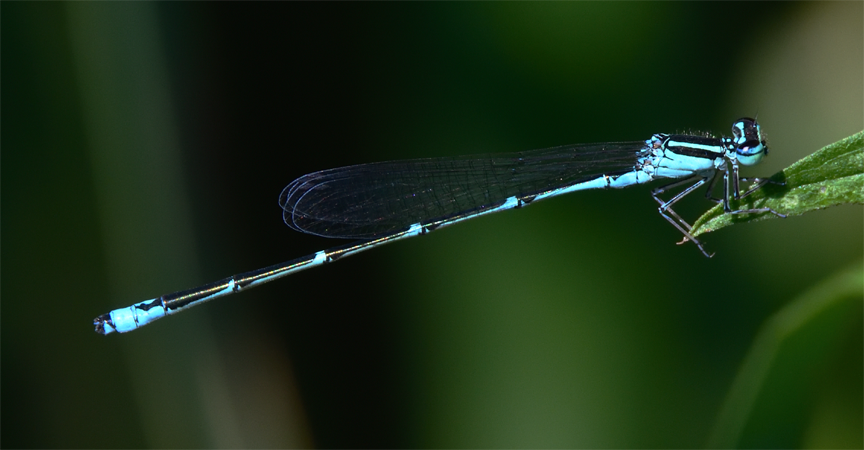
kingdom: Animalia
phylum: Arthropoda
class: Insecta
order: Odonata
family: Coenagrionidae
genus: Enallagma
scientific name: Enallagma exsulans
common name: Stream bluet
